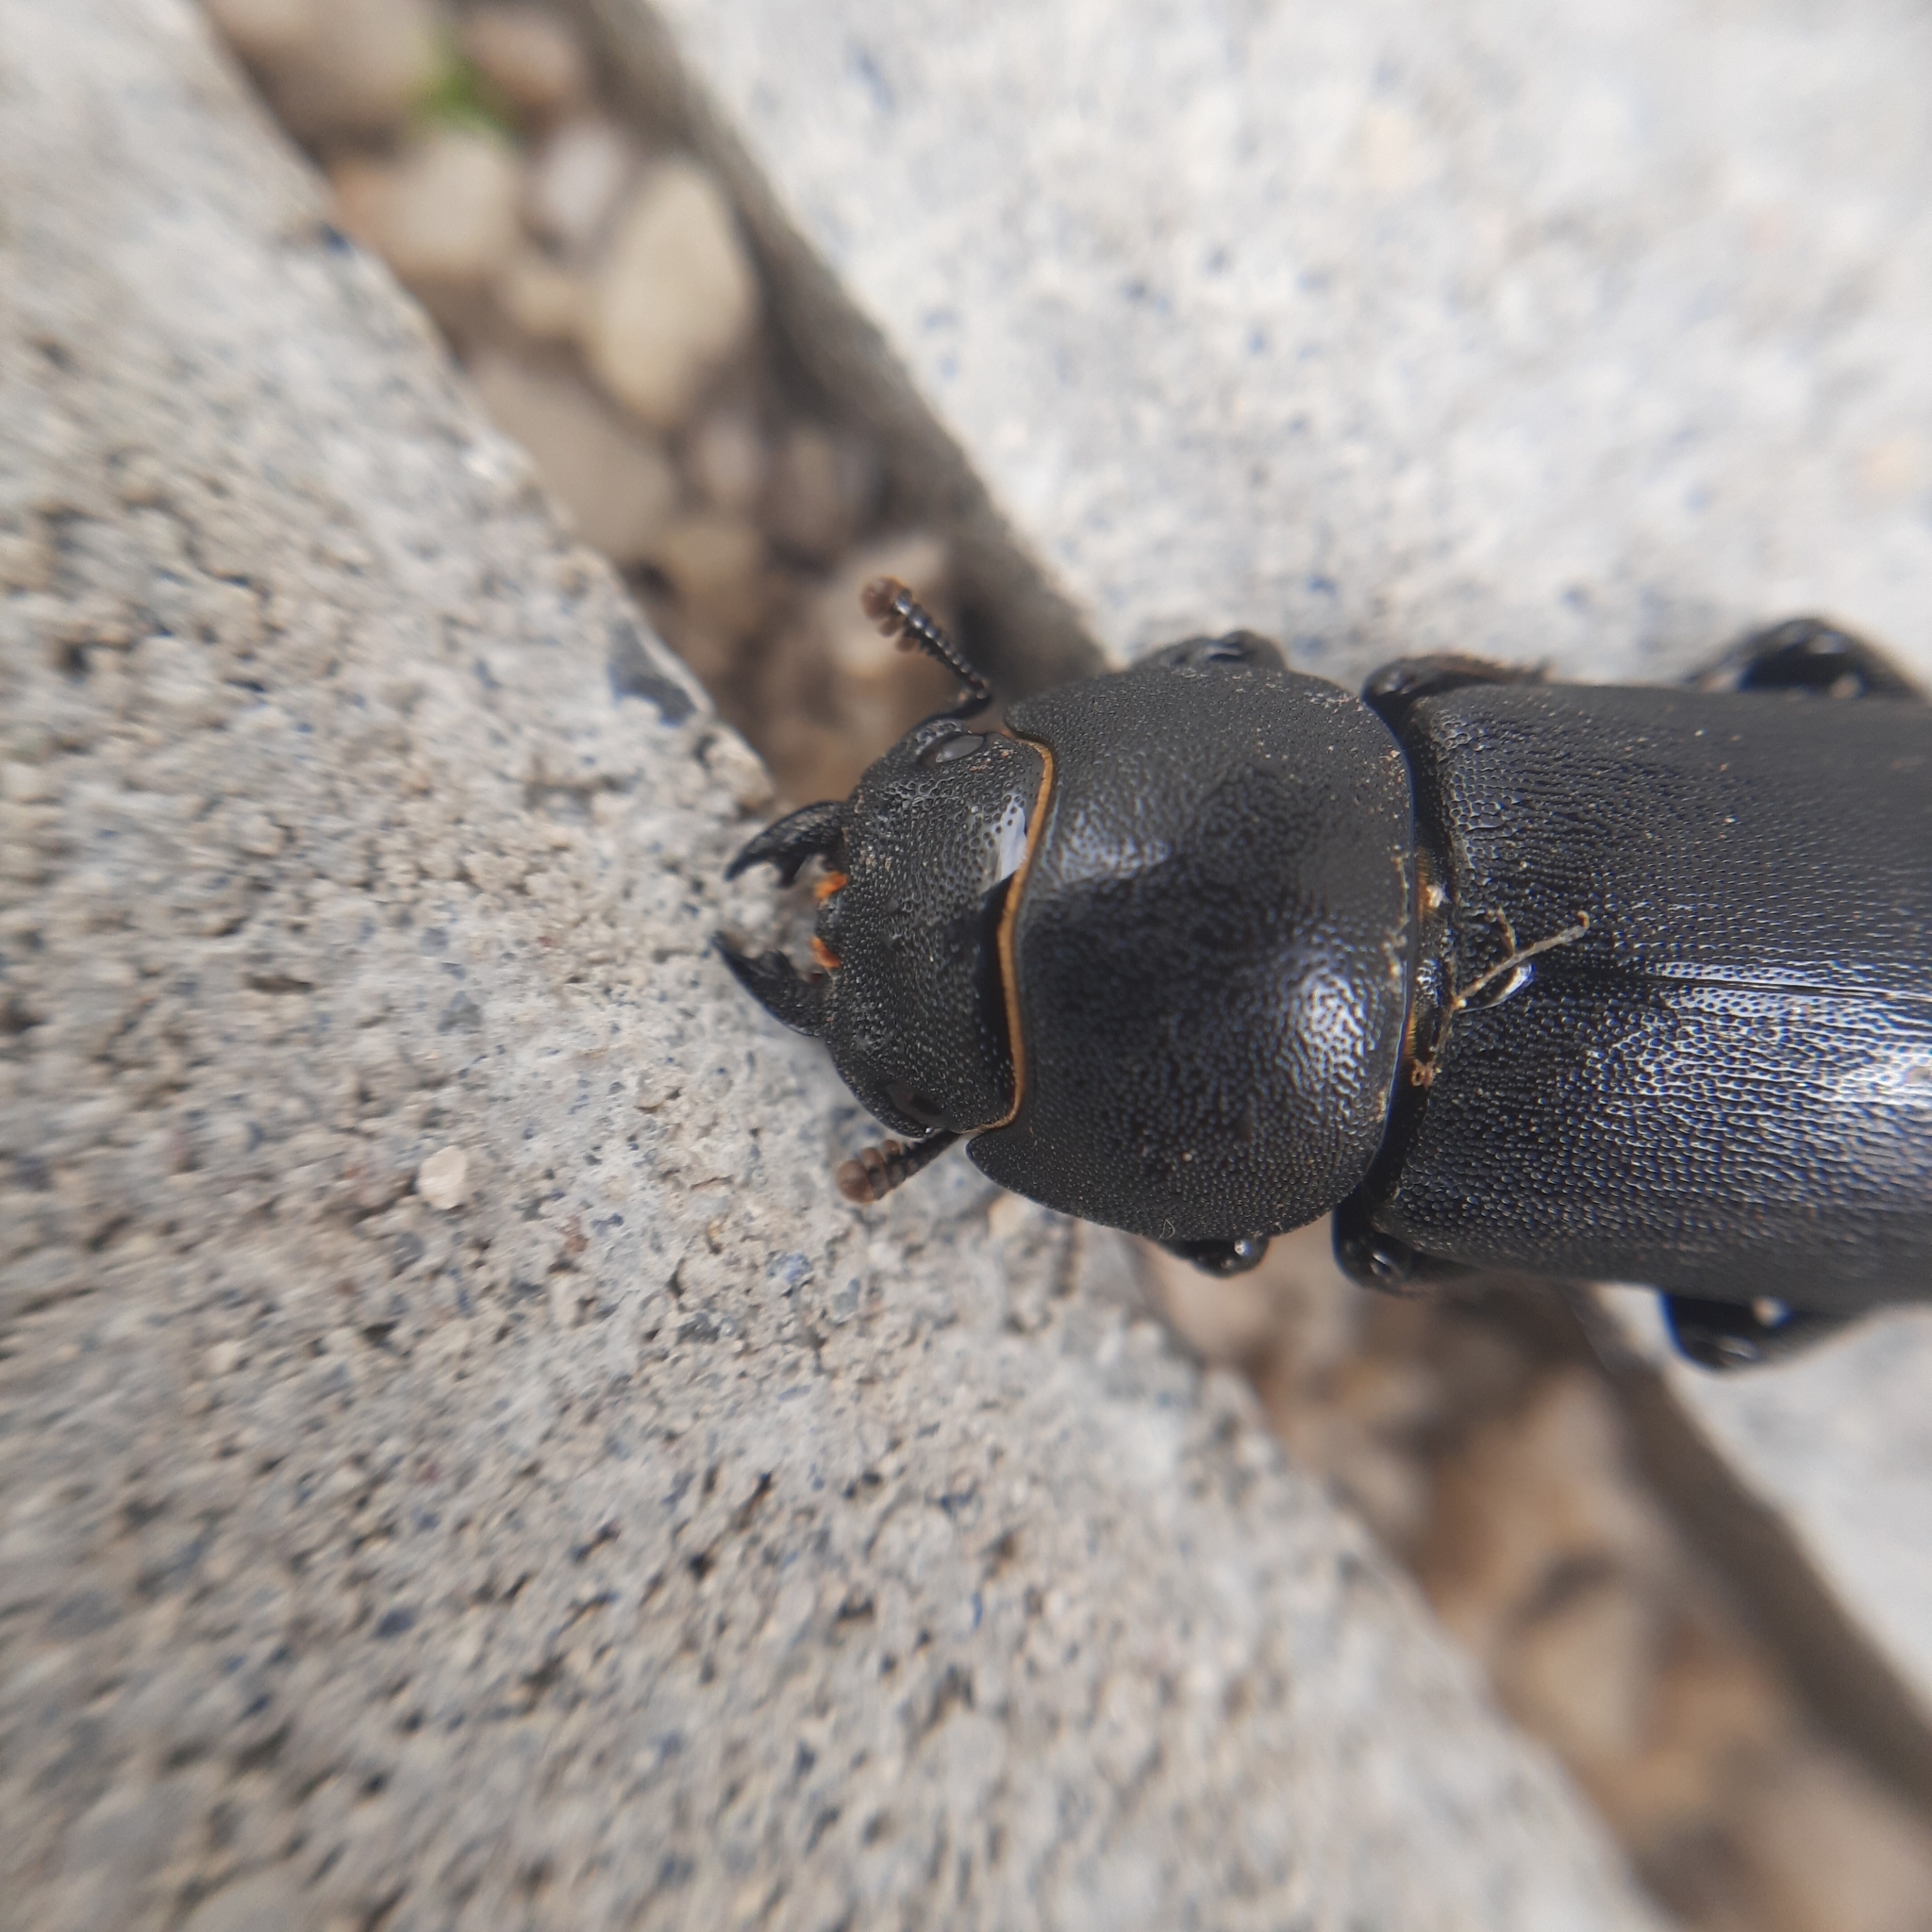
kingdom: Animalia
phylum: Arthropoda
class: Insecta
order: Coleoptera
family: Lucanidae
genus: Dorcus
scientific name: Dorcus parallelipipedus
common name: Lesser stag beetle
